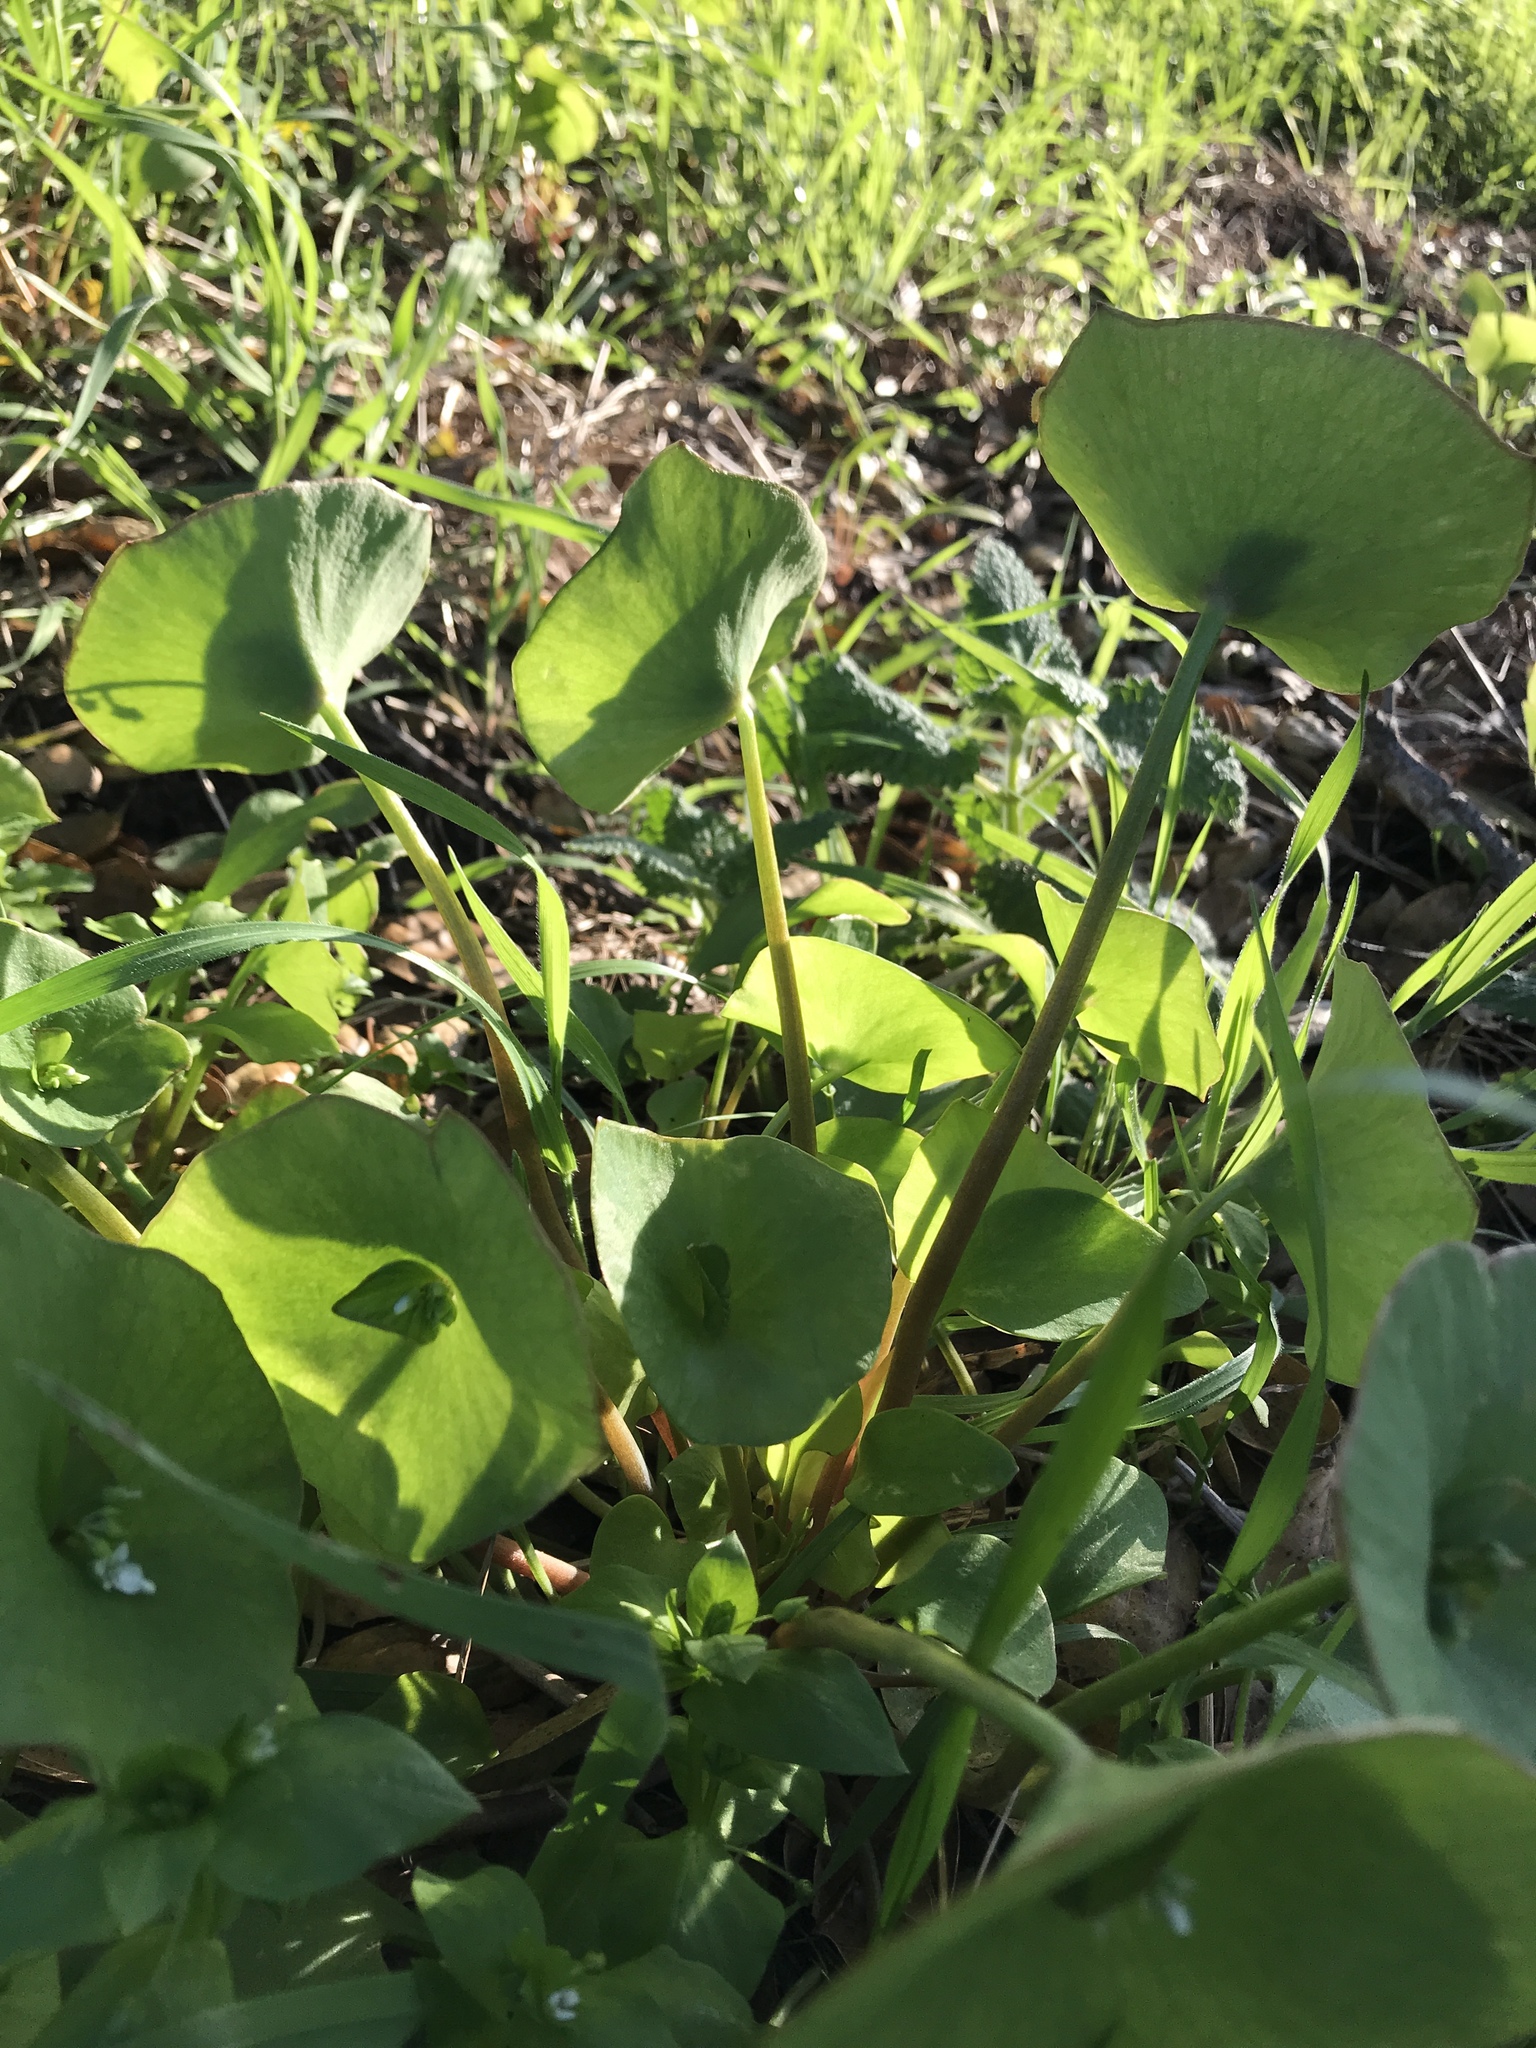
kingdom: Plantae
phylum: Tracheophyta
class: Magnoliopsida
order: Caryophyllales
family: Montiaceae
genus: Claytonia
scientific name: Claytonia perfoliata
